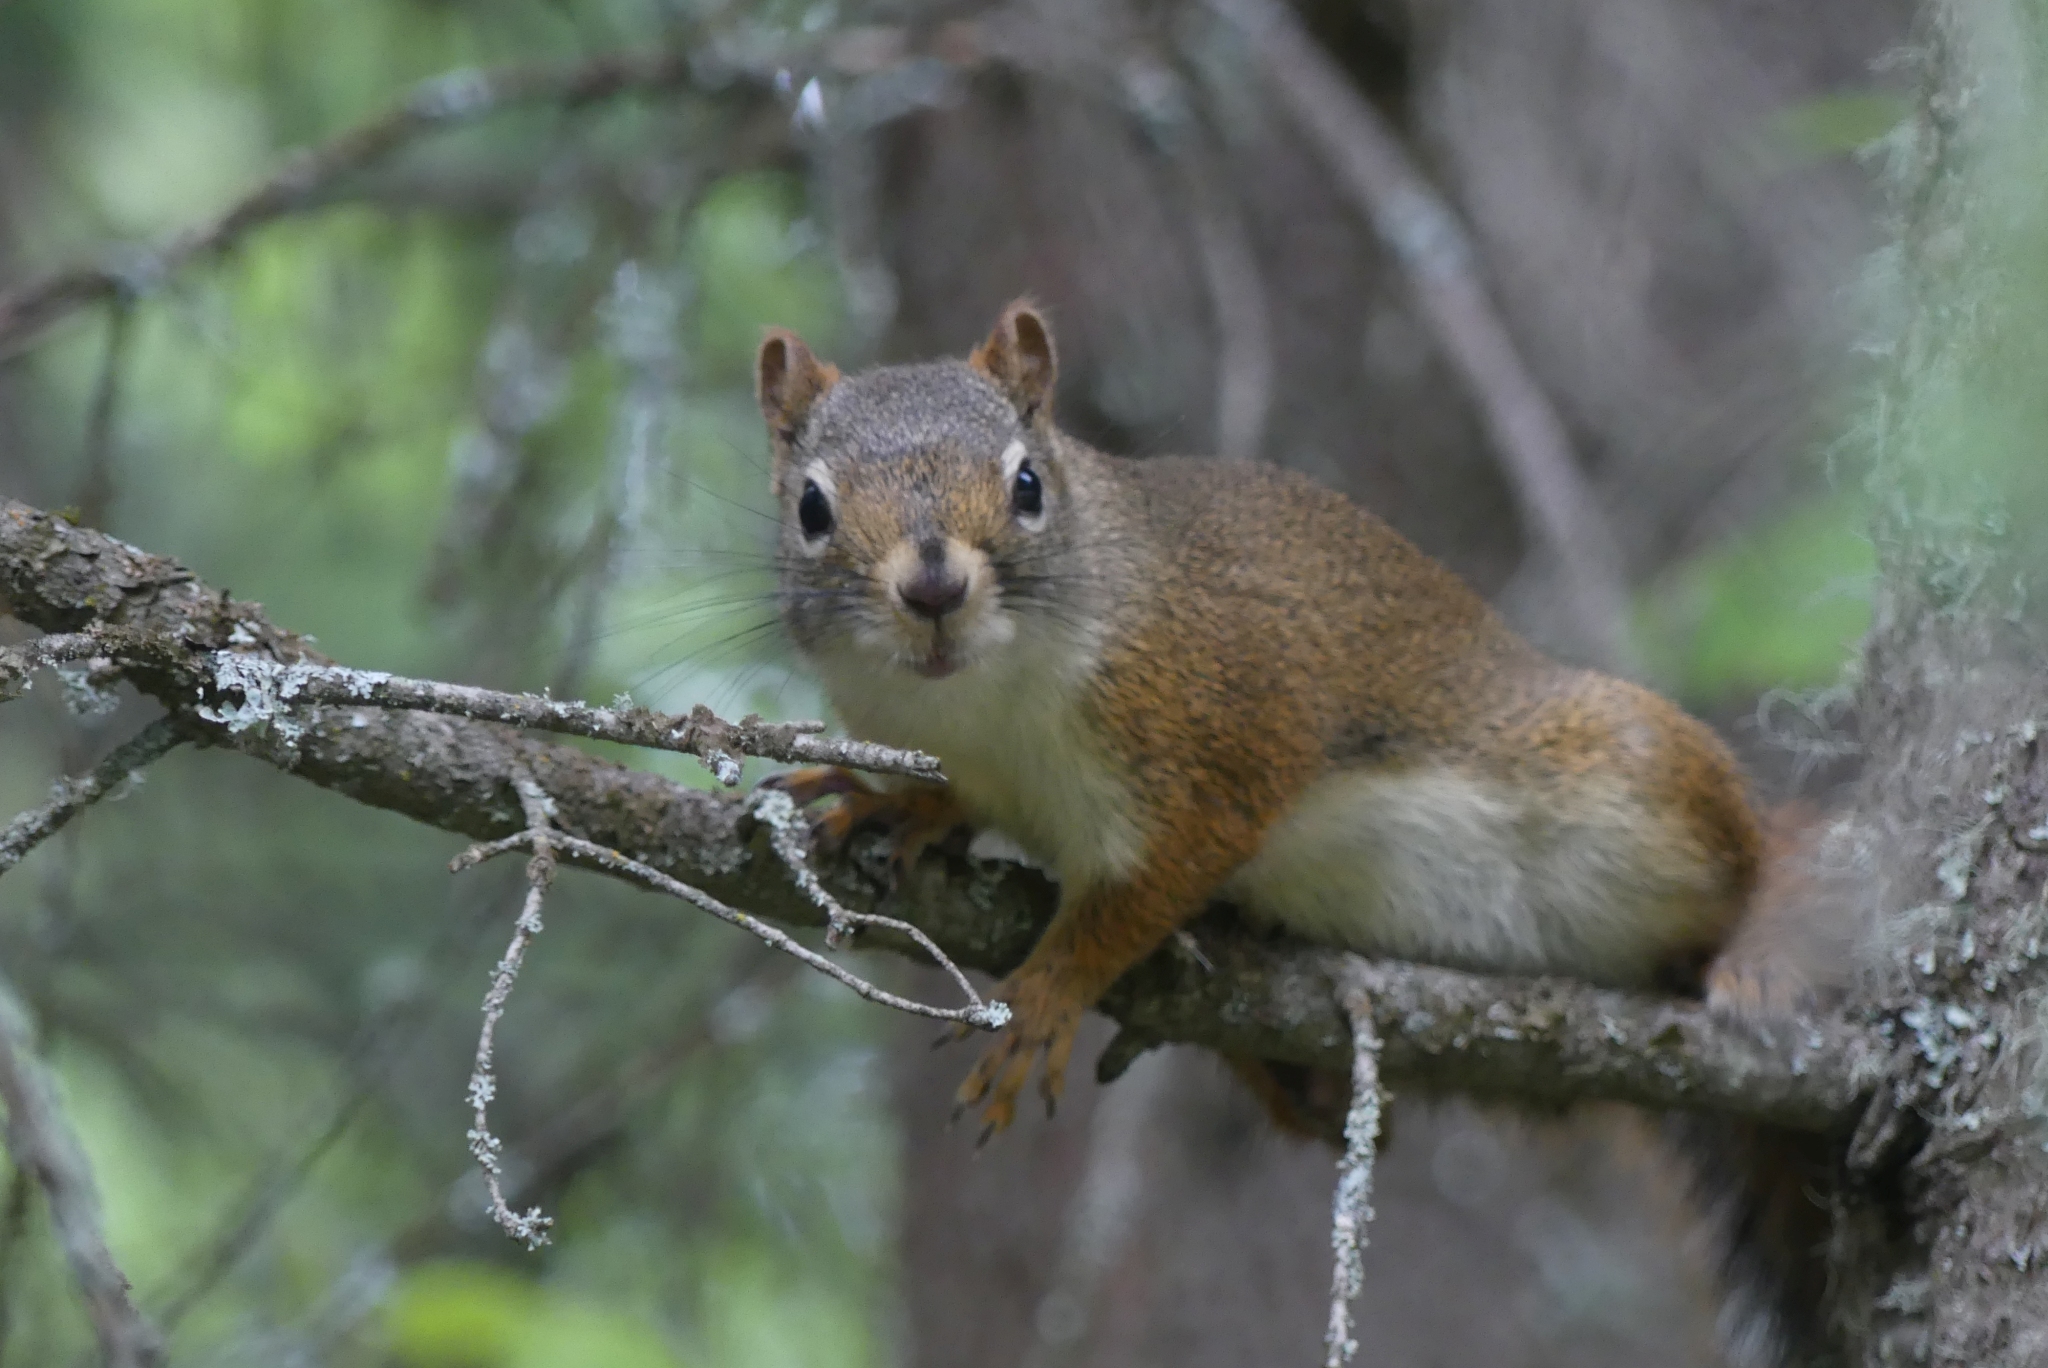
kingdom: Animalia
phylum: Chordata
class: Mammalia
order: Rodentia
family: Sciuridae
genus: Tamiasciurus
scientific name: Tamiasciurus hudsonicus
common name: Red squirrel
